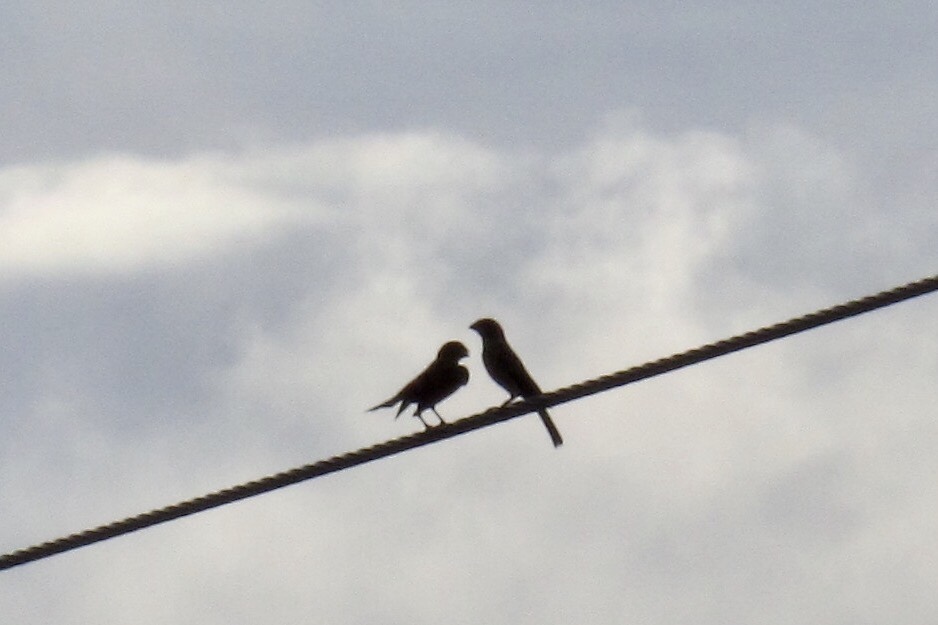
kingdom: Animalia
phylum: Chordata
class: Aves
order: Passeriformes
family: Fringillidae
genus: Haemorhous
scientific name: Haemorhous mexicanus
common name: House finch
